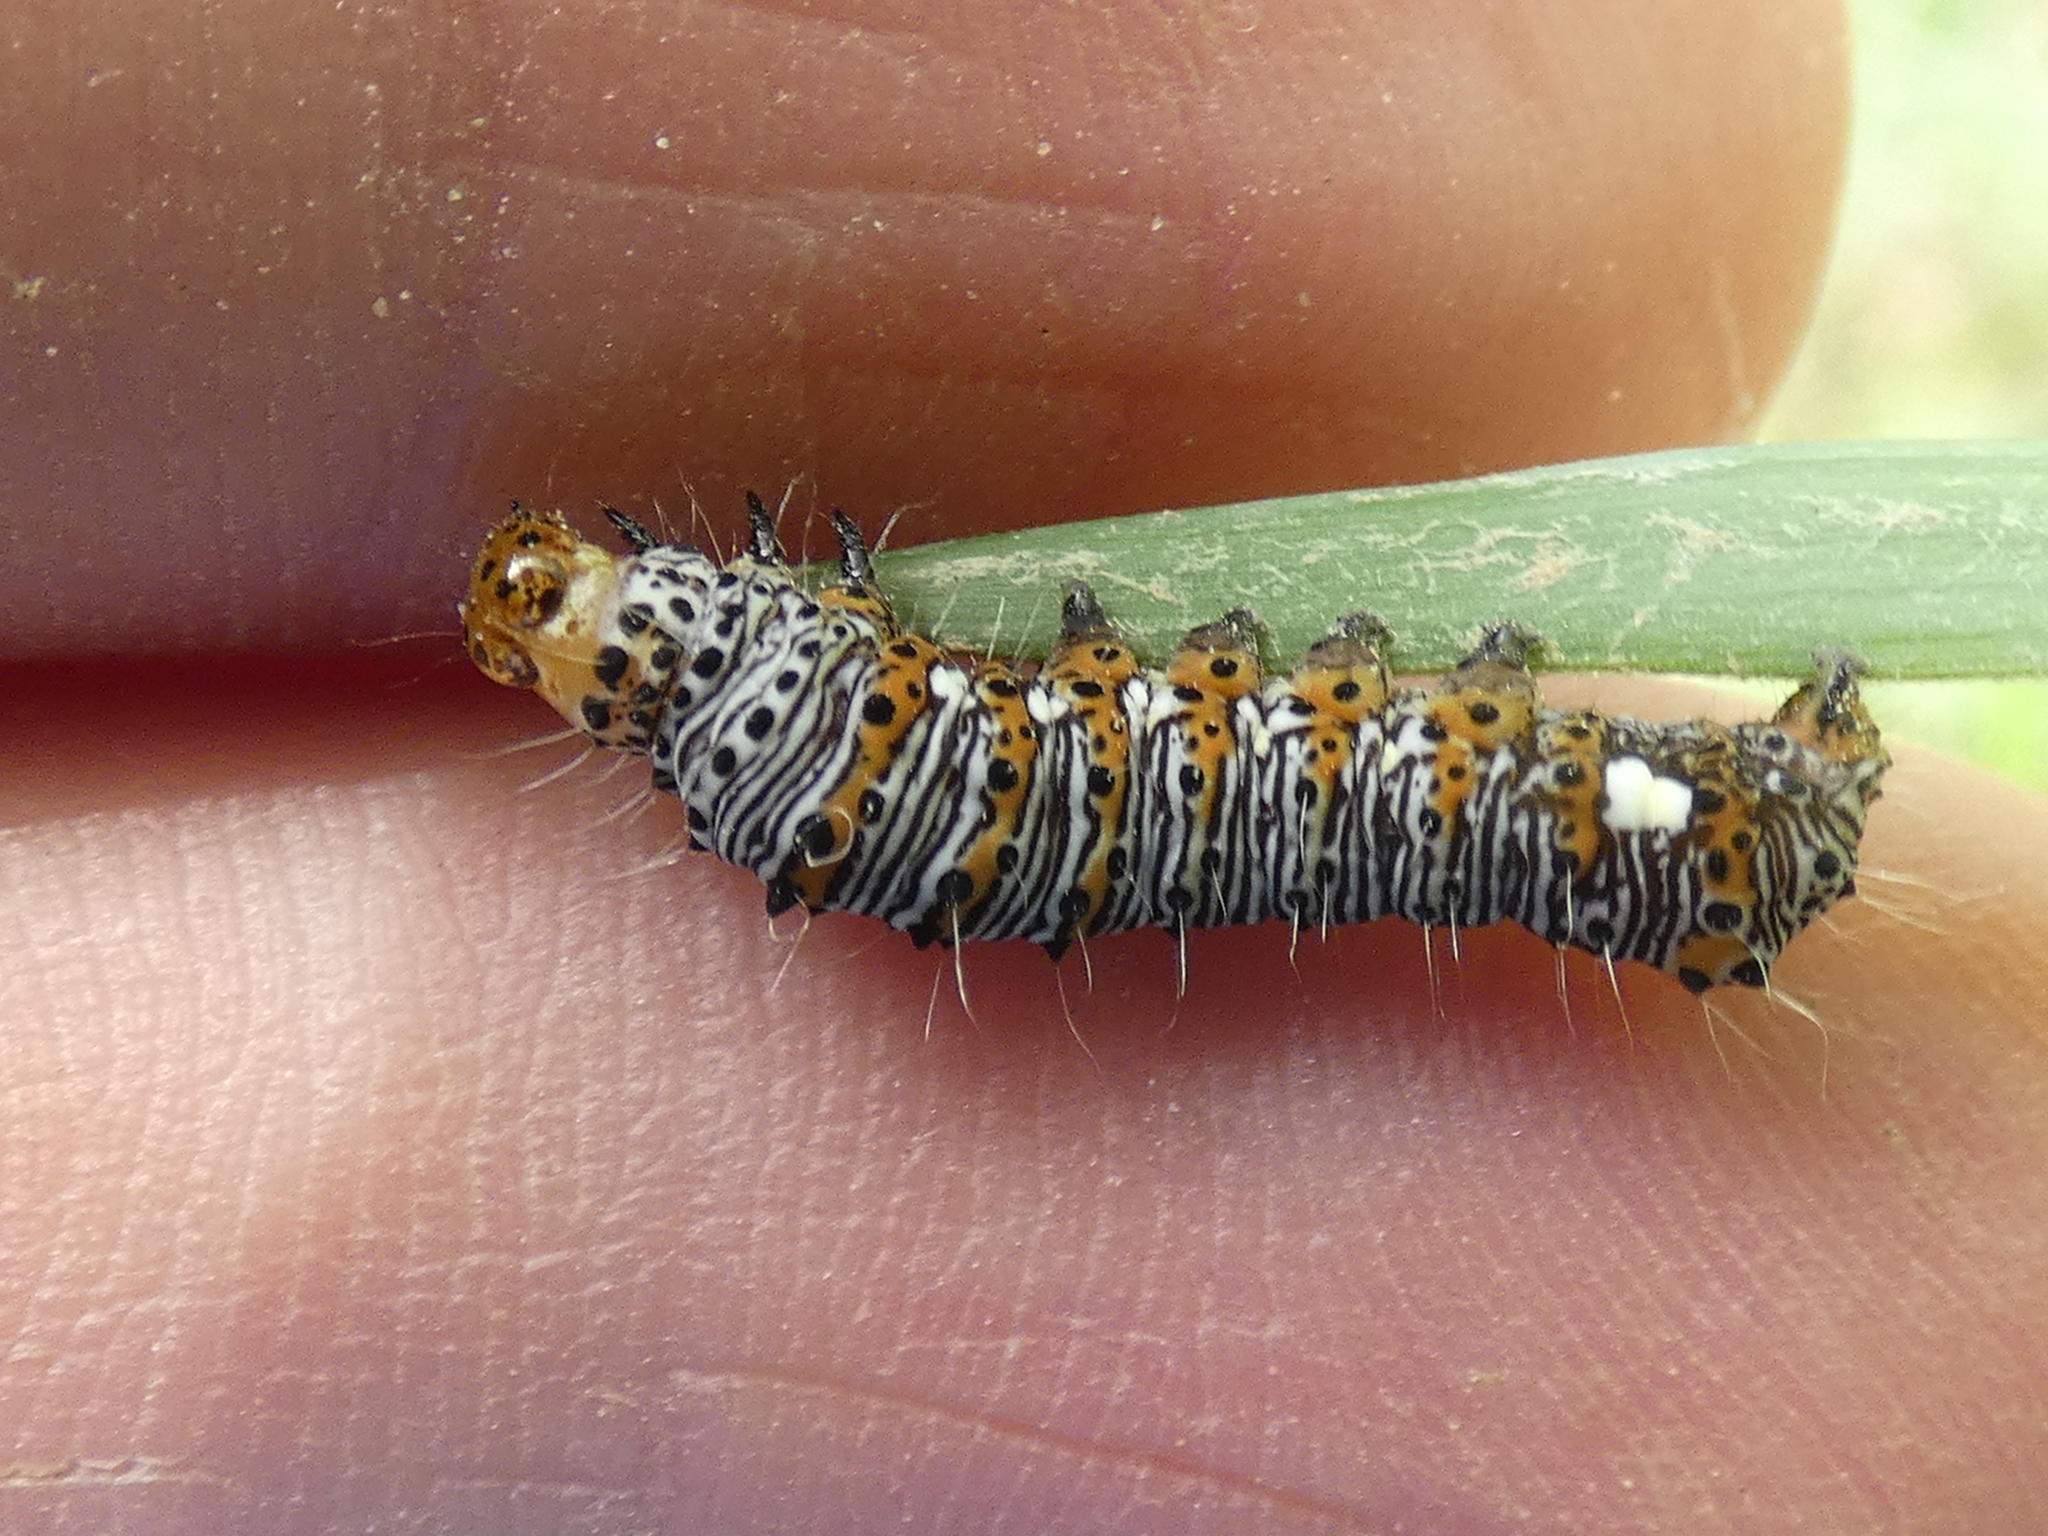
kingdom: Animalia
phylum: Arthropoda
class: Insecta
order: Lepidoptera
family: Noctuidae
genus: Alypia
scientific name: Alypia octomaculata
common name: Eight-spotted forester
